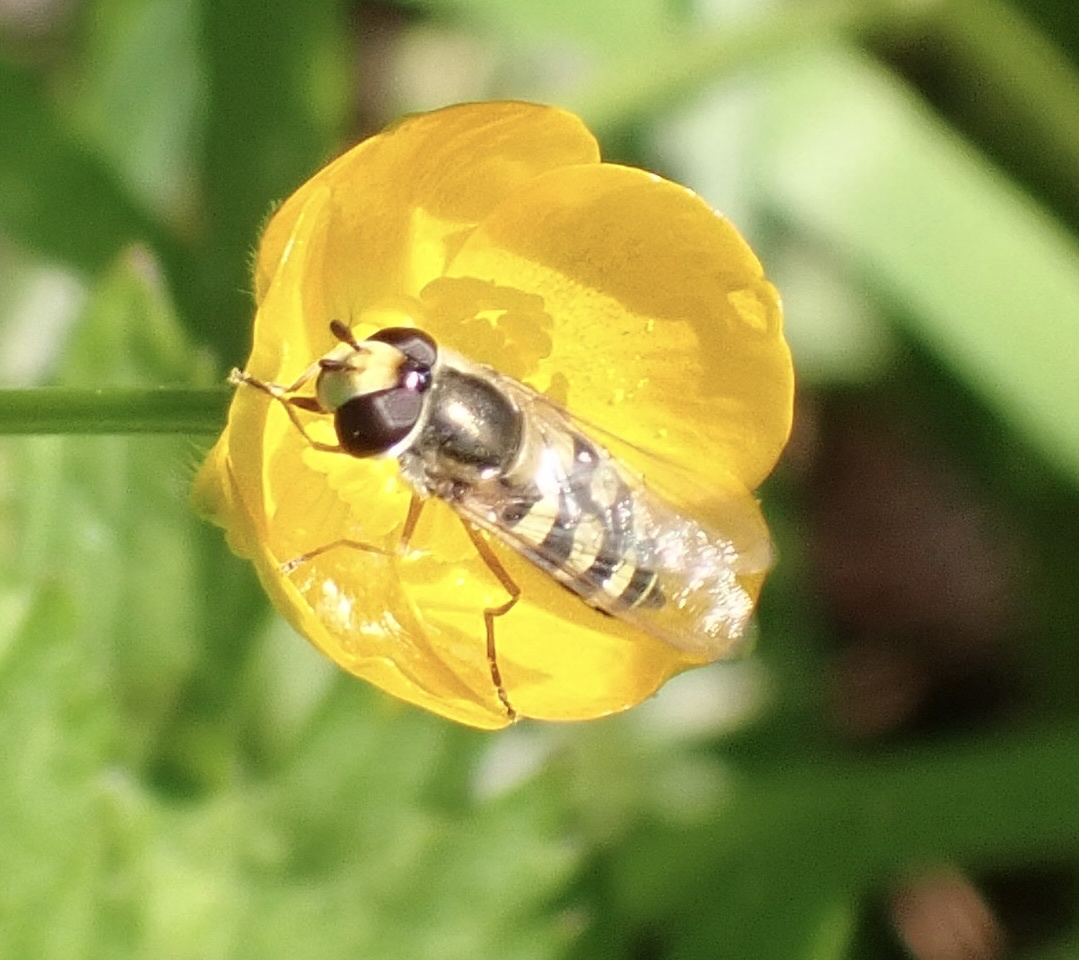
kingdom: Animalia
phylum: Arthropoda
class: Insecta
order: Diptera
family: Syrphidae
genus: Eupeodes
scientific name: Eupeodes corollae
